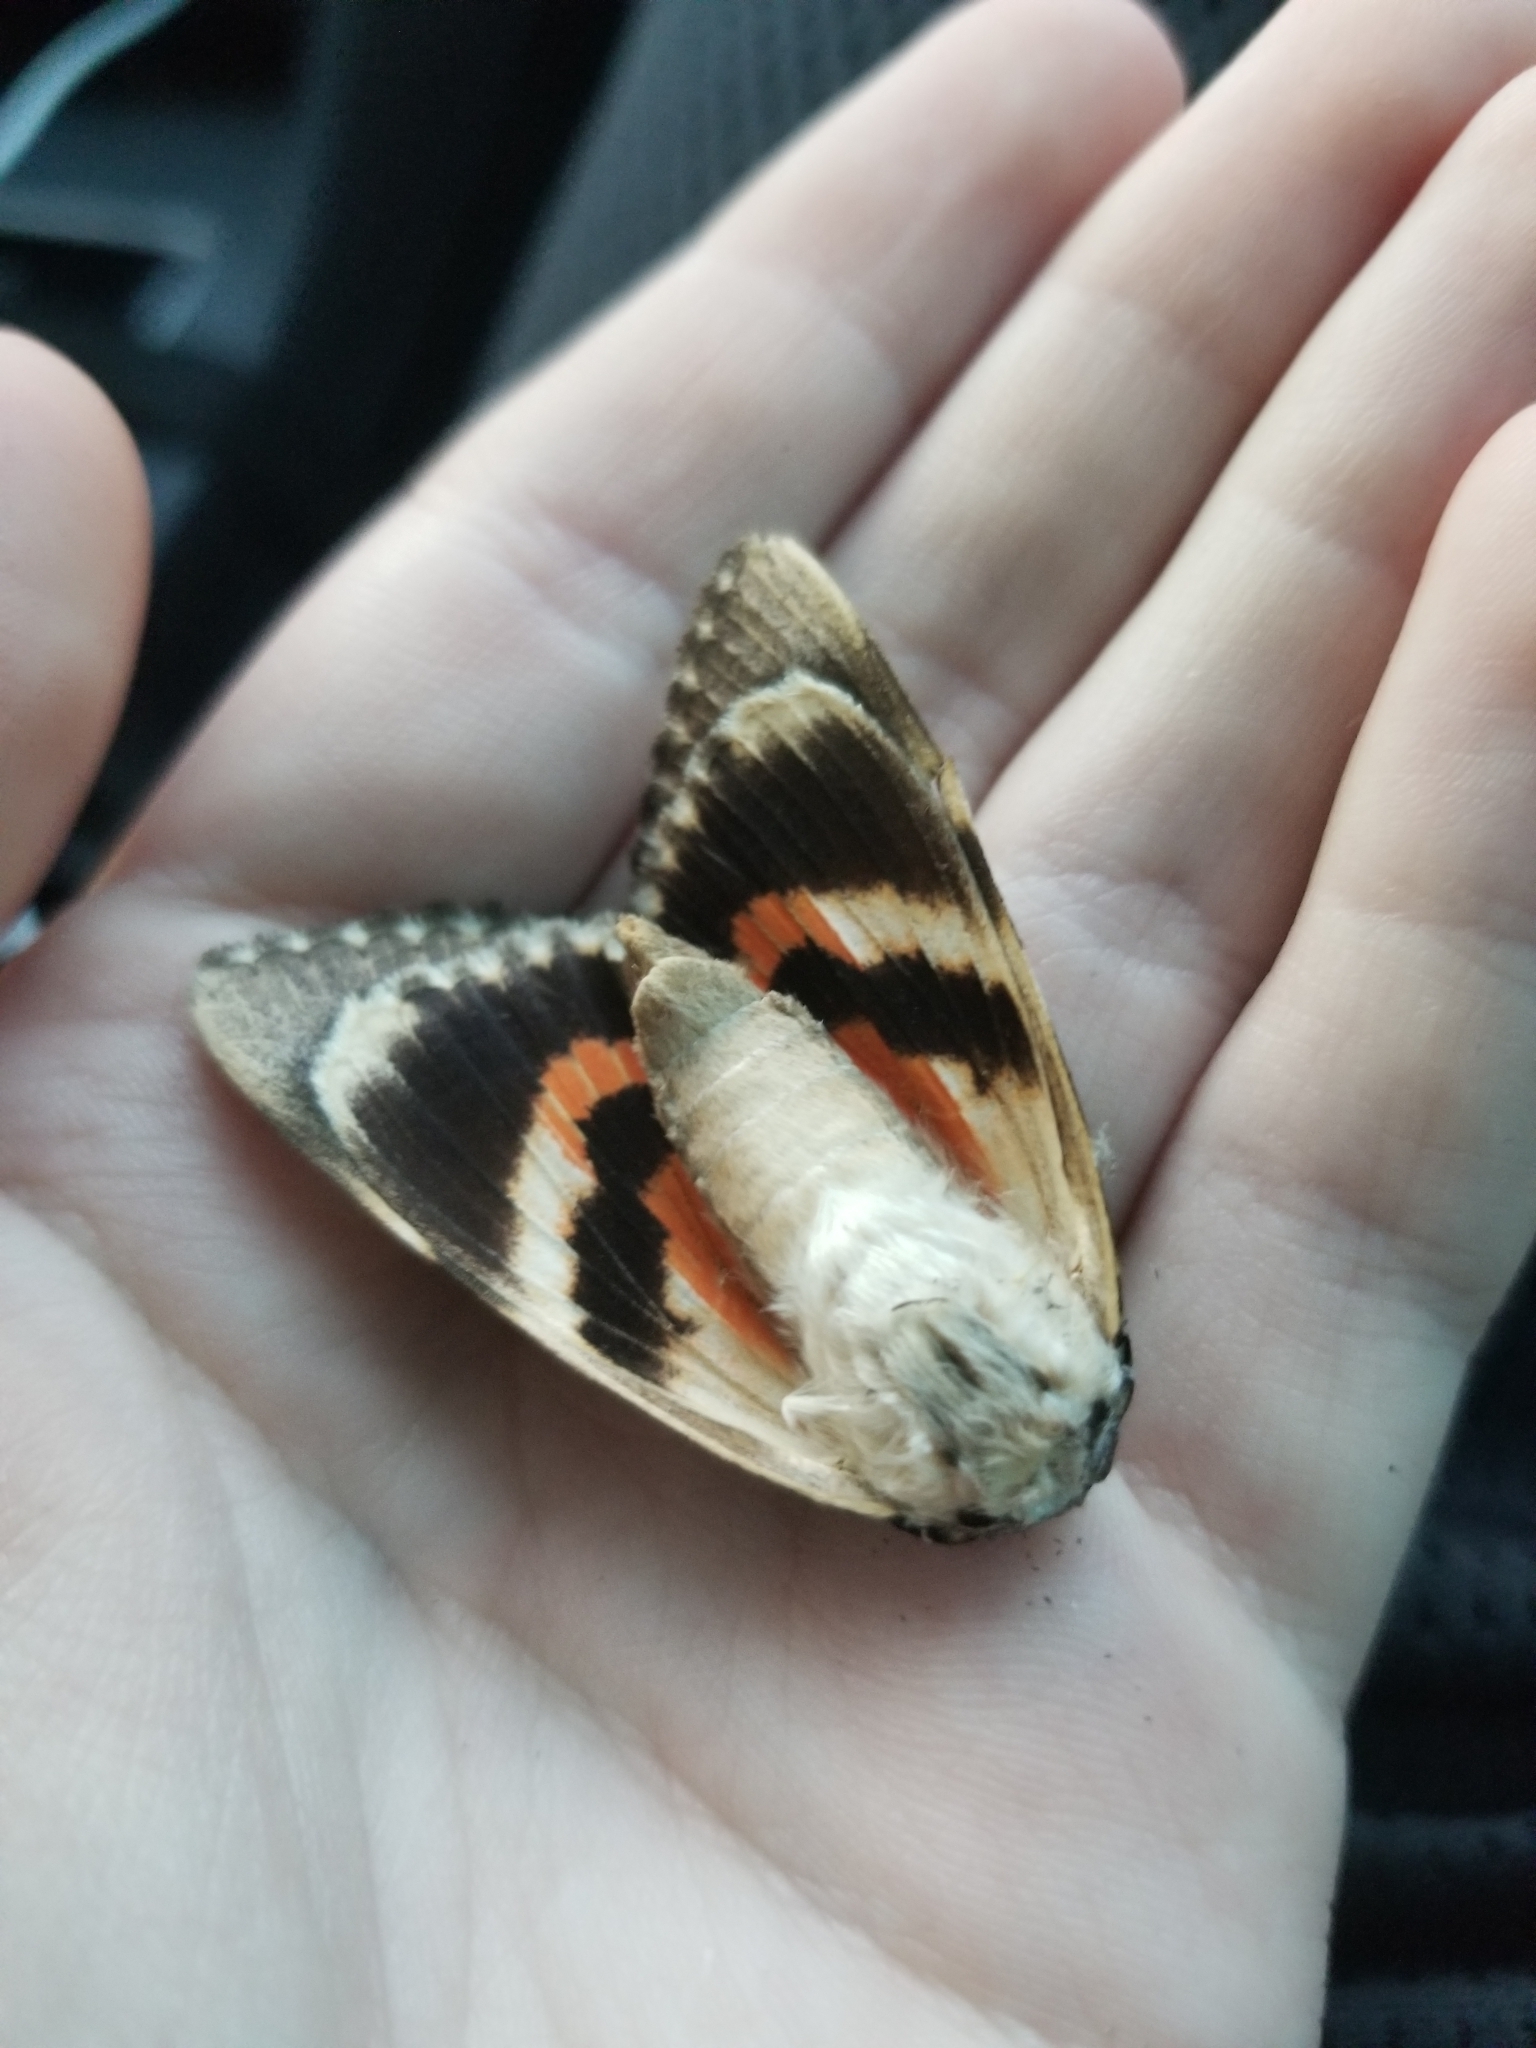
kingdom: Animalia
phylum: Arthropoda
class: Insecta
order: Lepidoptera
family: Erebidae
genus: Catocala
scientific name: Catocala ilia
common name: Ilia underwing
